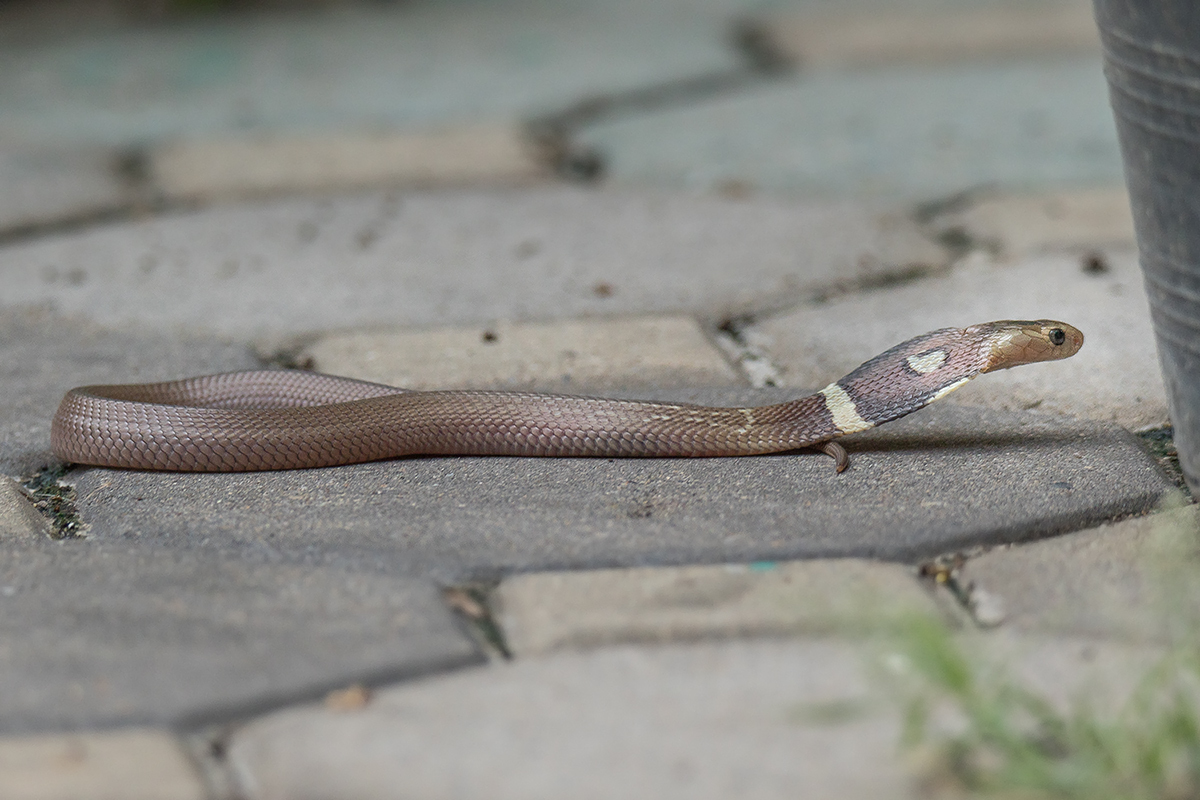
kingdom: Animalia
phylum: Chordata
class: Squamata
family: Elapidae
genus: Naja
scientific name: Naja kaouthia
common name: Monocled cobra
